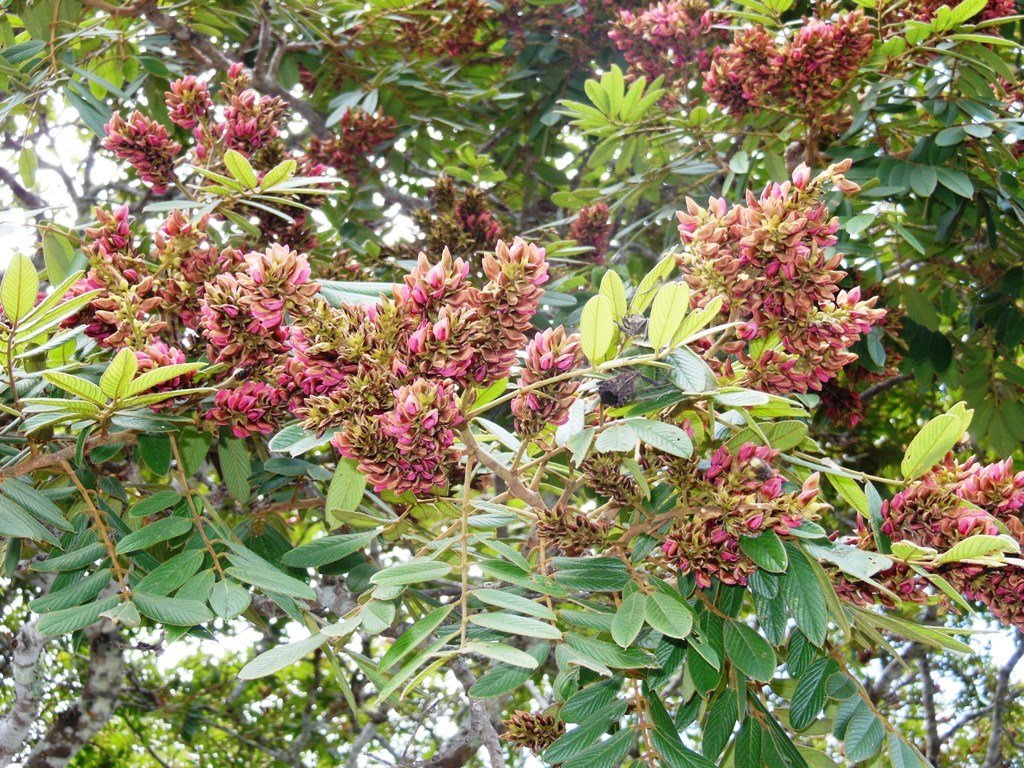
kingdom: Plantae
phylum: Tracheophyta
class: Magnoliopsida
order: Fabales
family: Fabaceae
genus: Lonchocarpus
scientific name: Lonchocarpus rugosus
